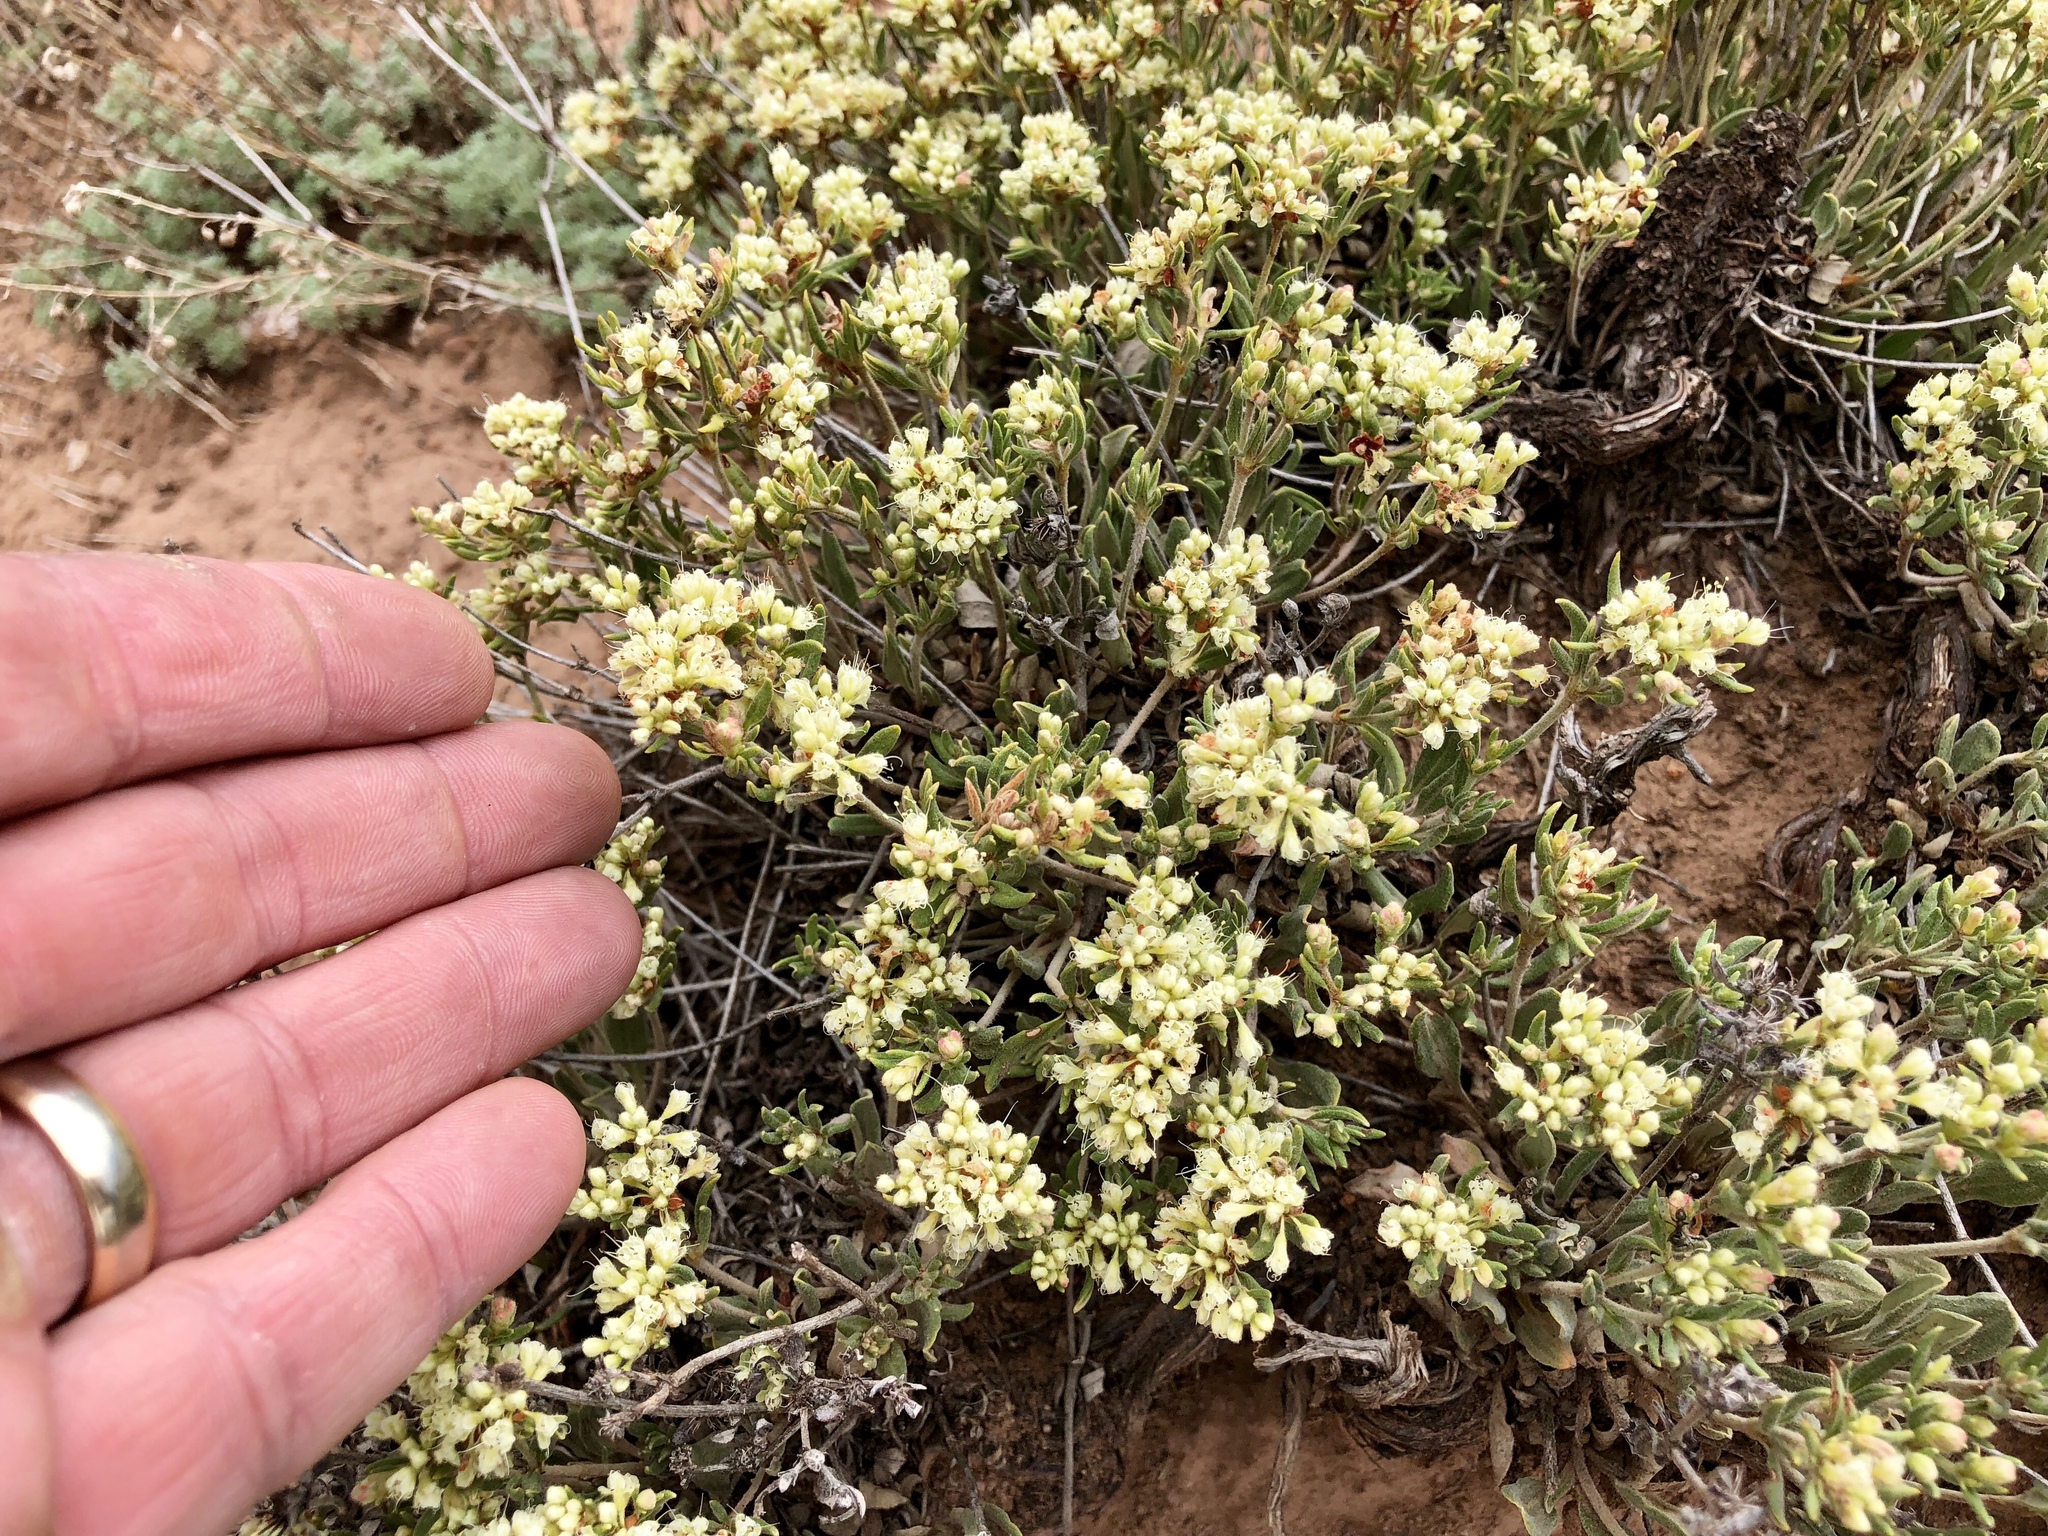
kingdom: Plantae
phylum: Tracheophyta
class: Magnoliopsida
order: Caryophyllales
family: Polygonaceae
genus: Eriogonum
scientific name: Eriogonum jamesii
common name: Antelope-sage
